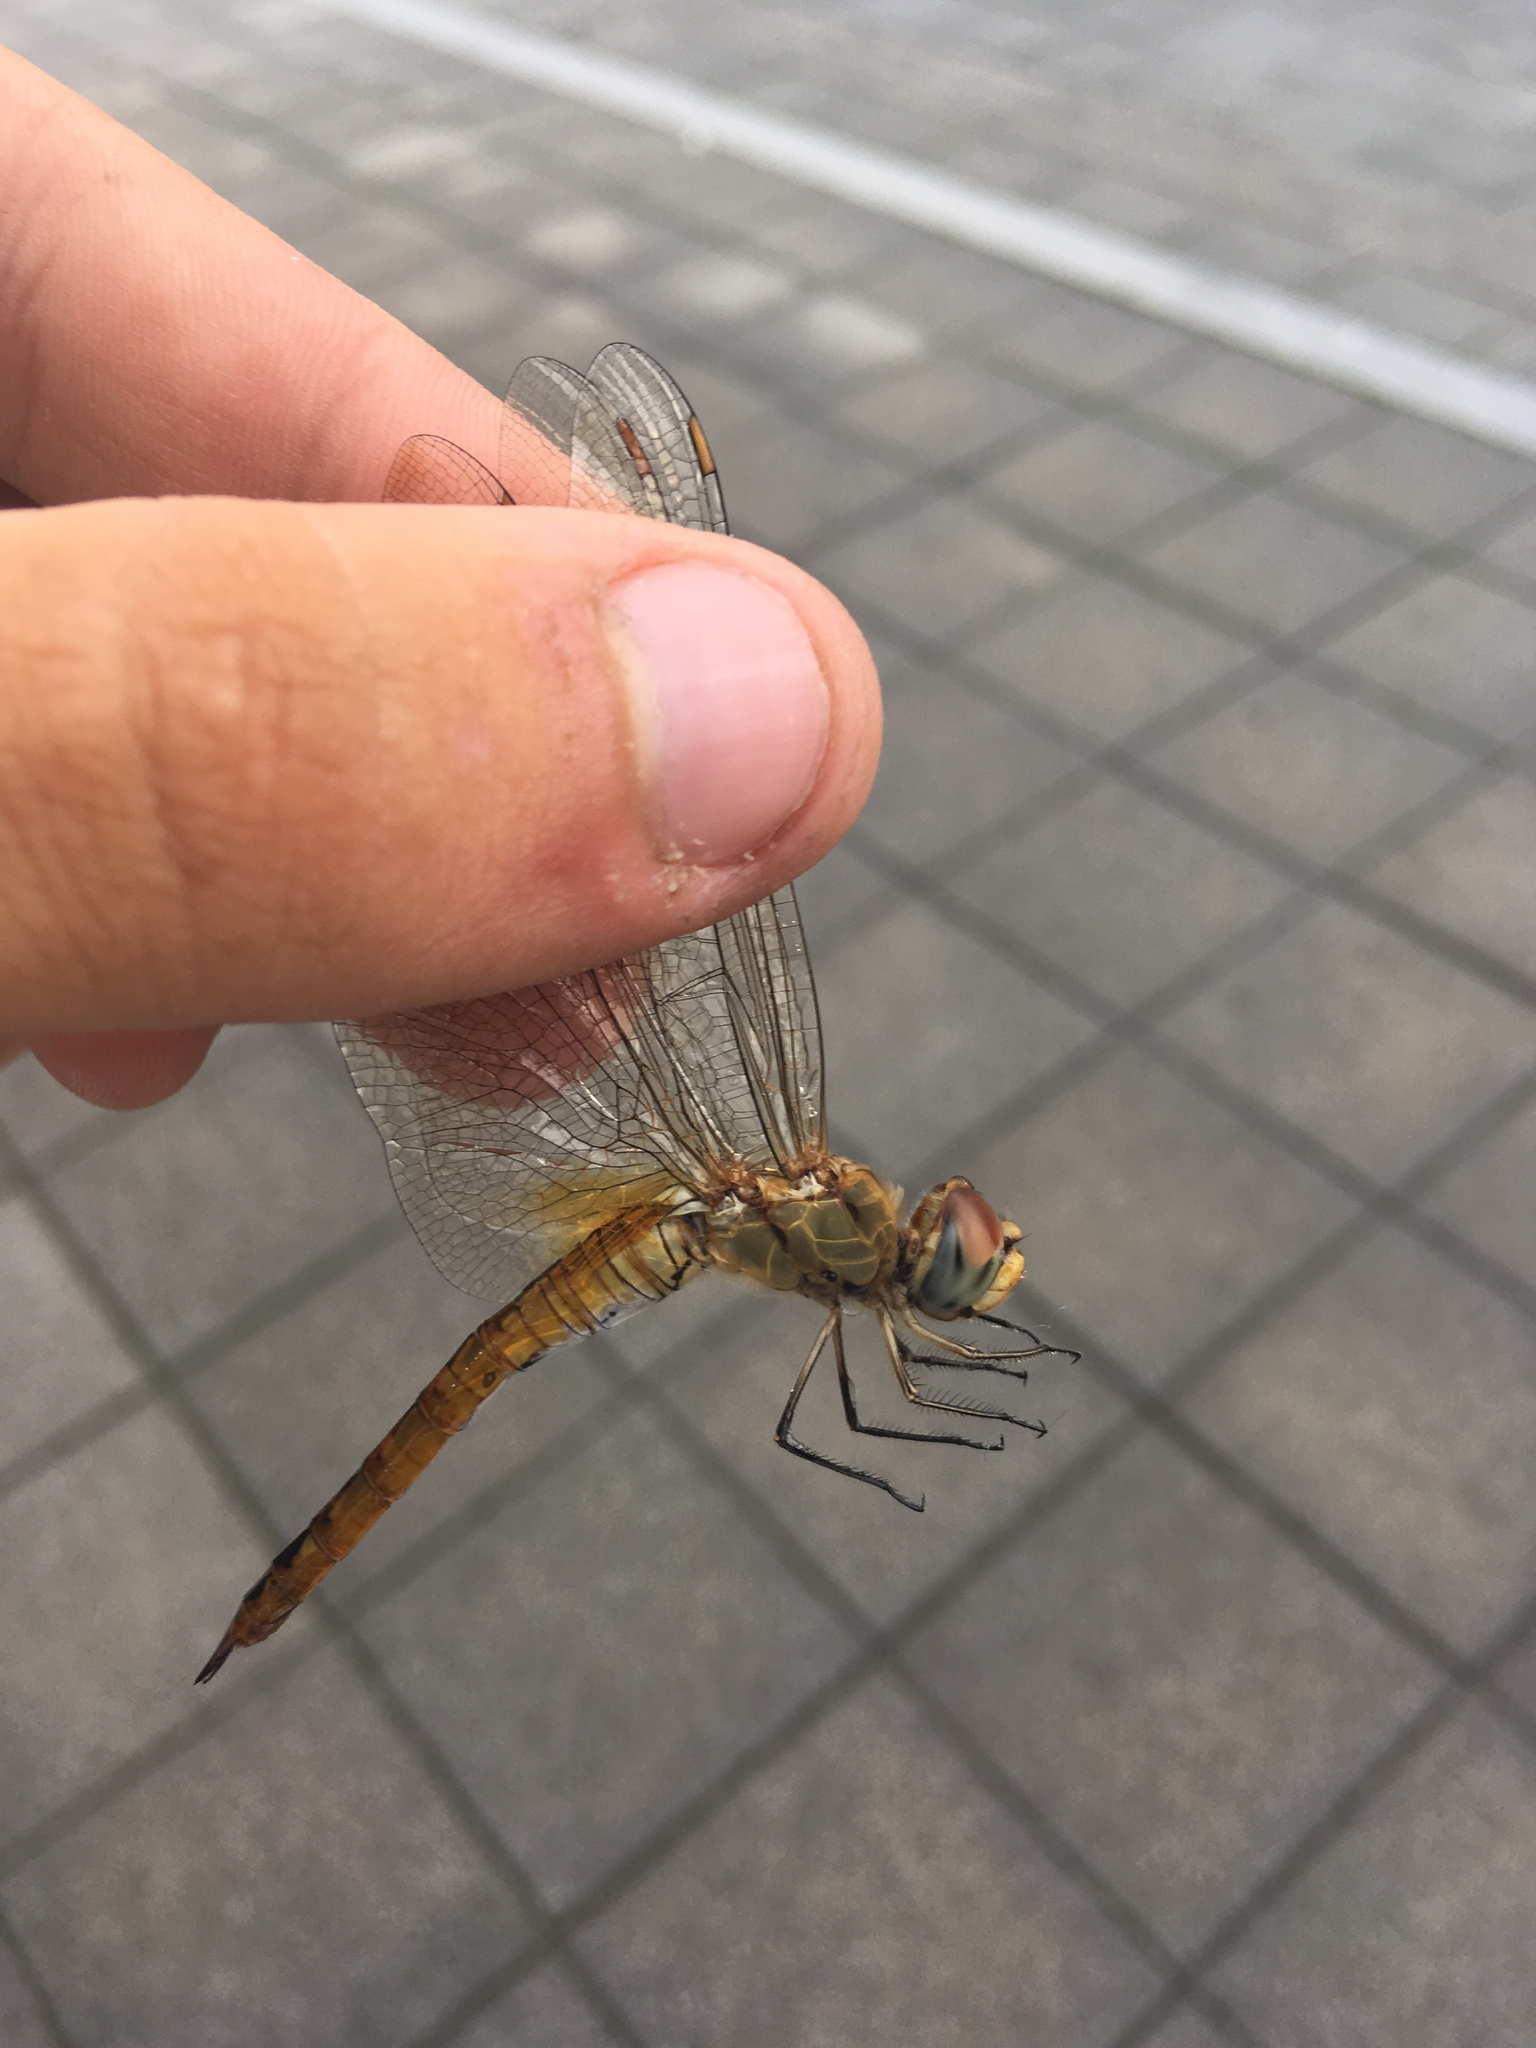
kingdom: Animalia
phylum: Arthropoda
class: Insecta
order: Odonata
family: Libellulidae
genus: Pantala
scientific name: Pantala flavescens
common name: Wandering glider
